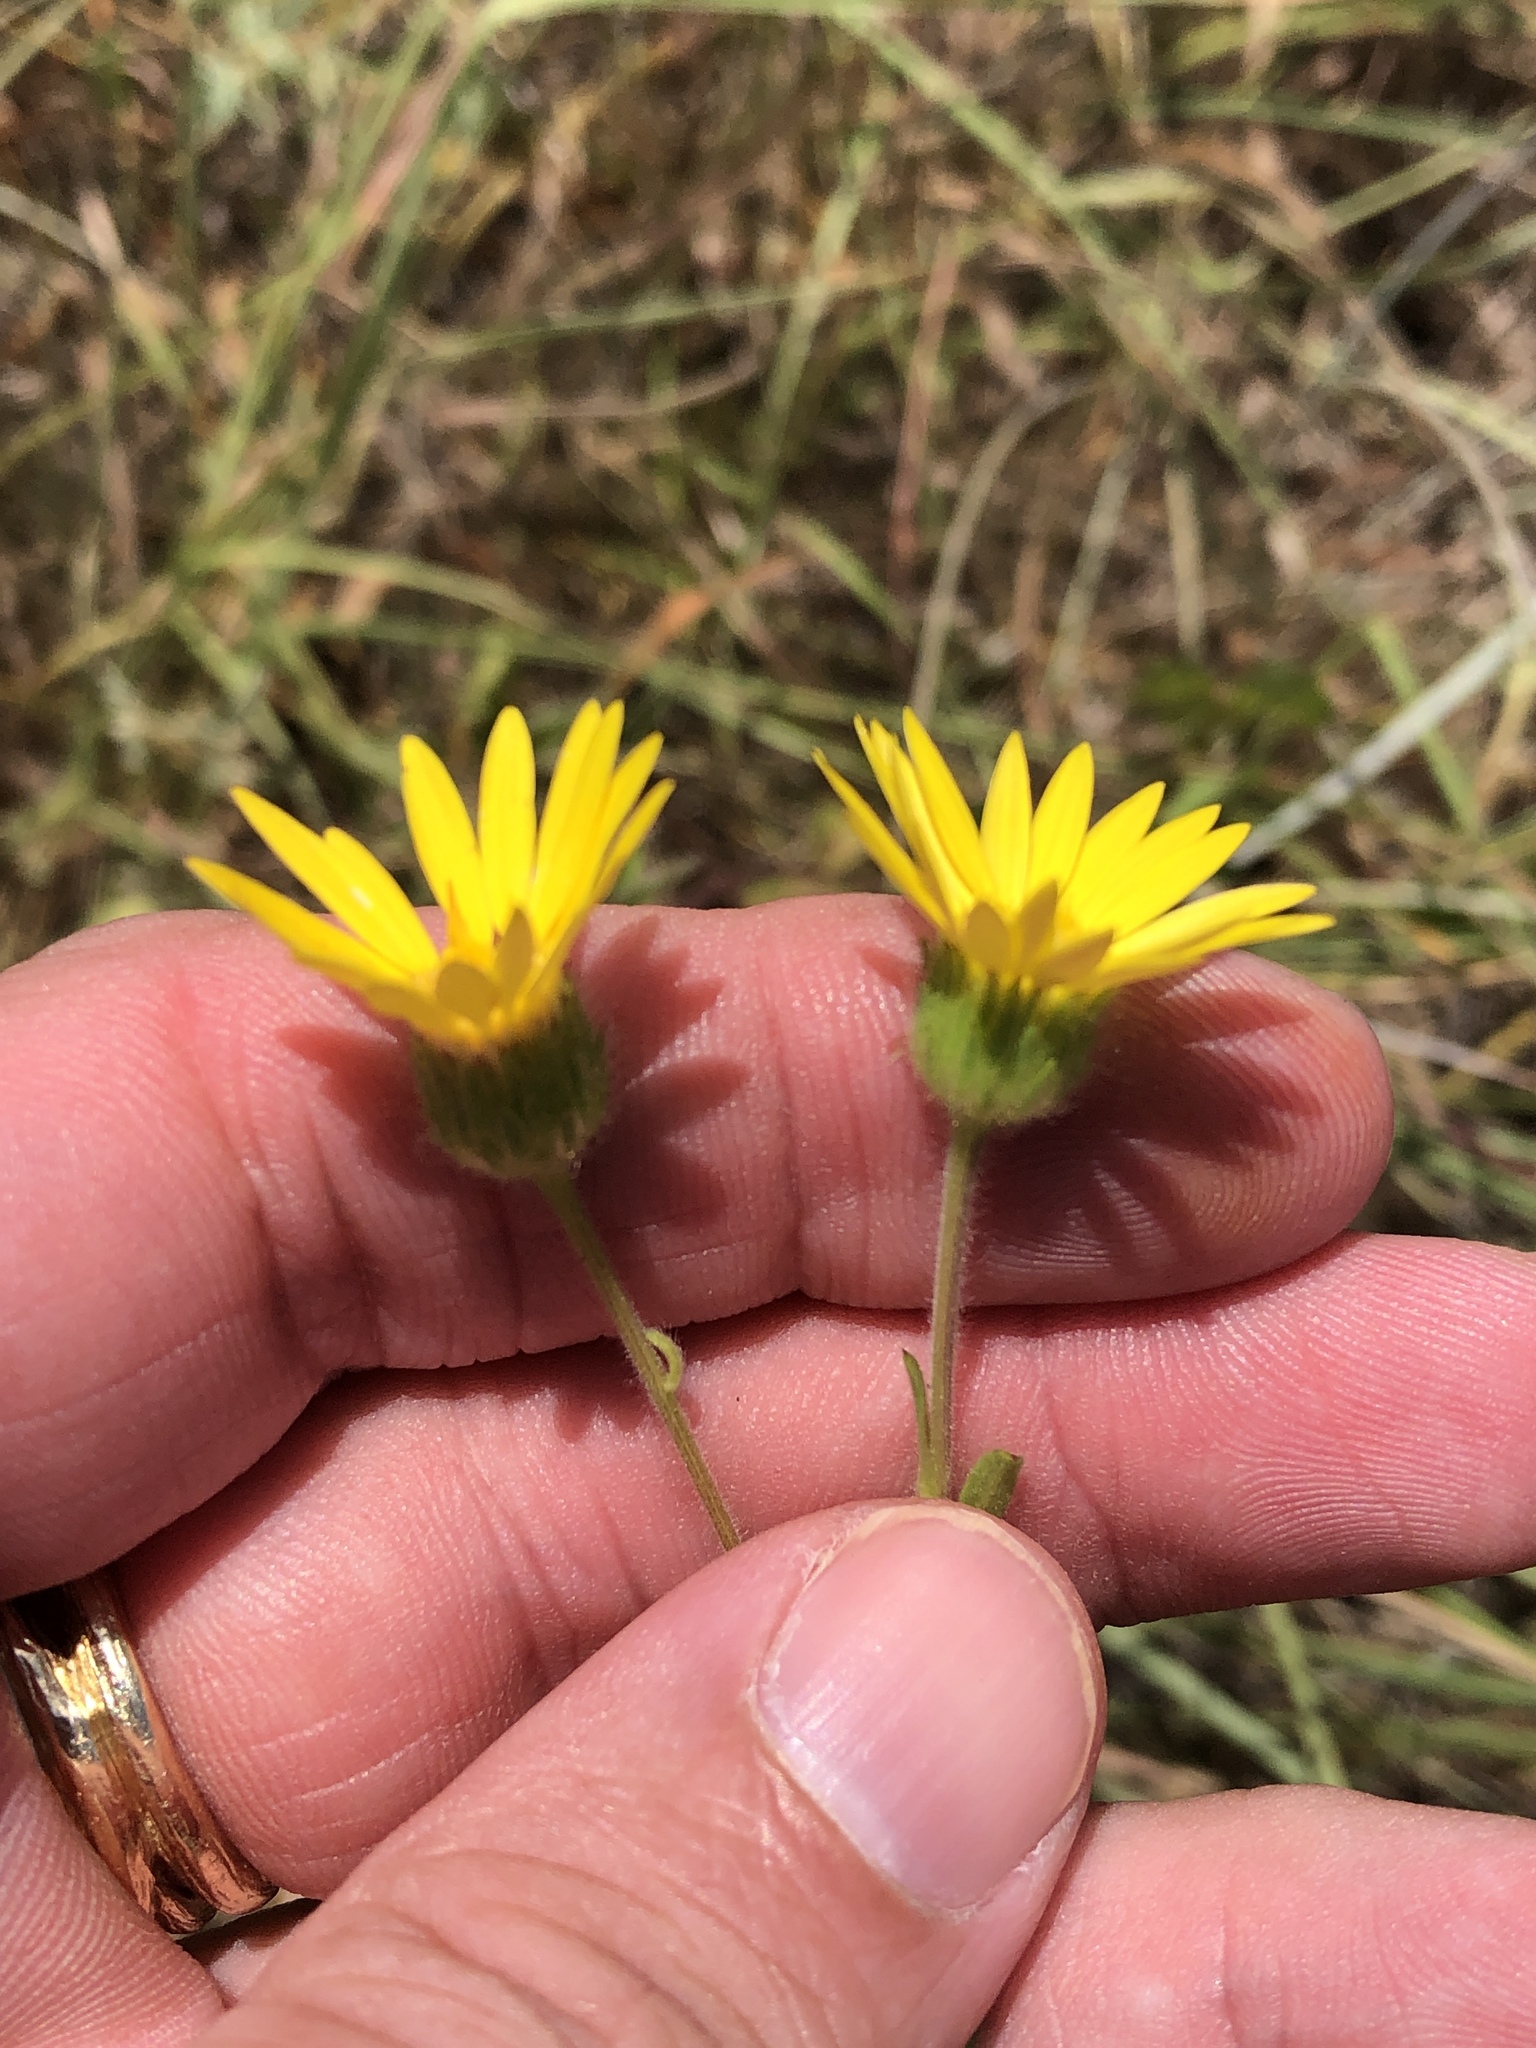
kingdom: Plantae
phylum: Tracheophyta
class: Magnoliopsida
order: Asterales
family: Asteraceae
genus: Bradburia
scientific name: Bradburia pilosa
